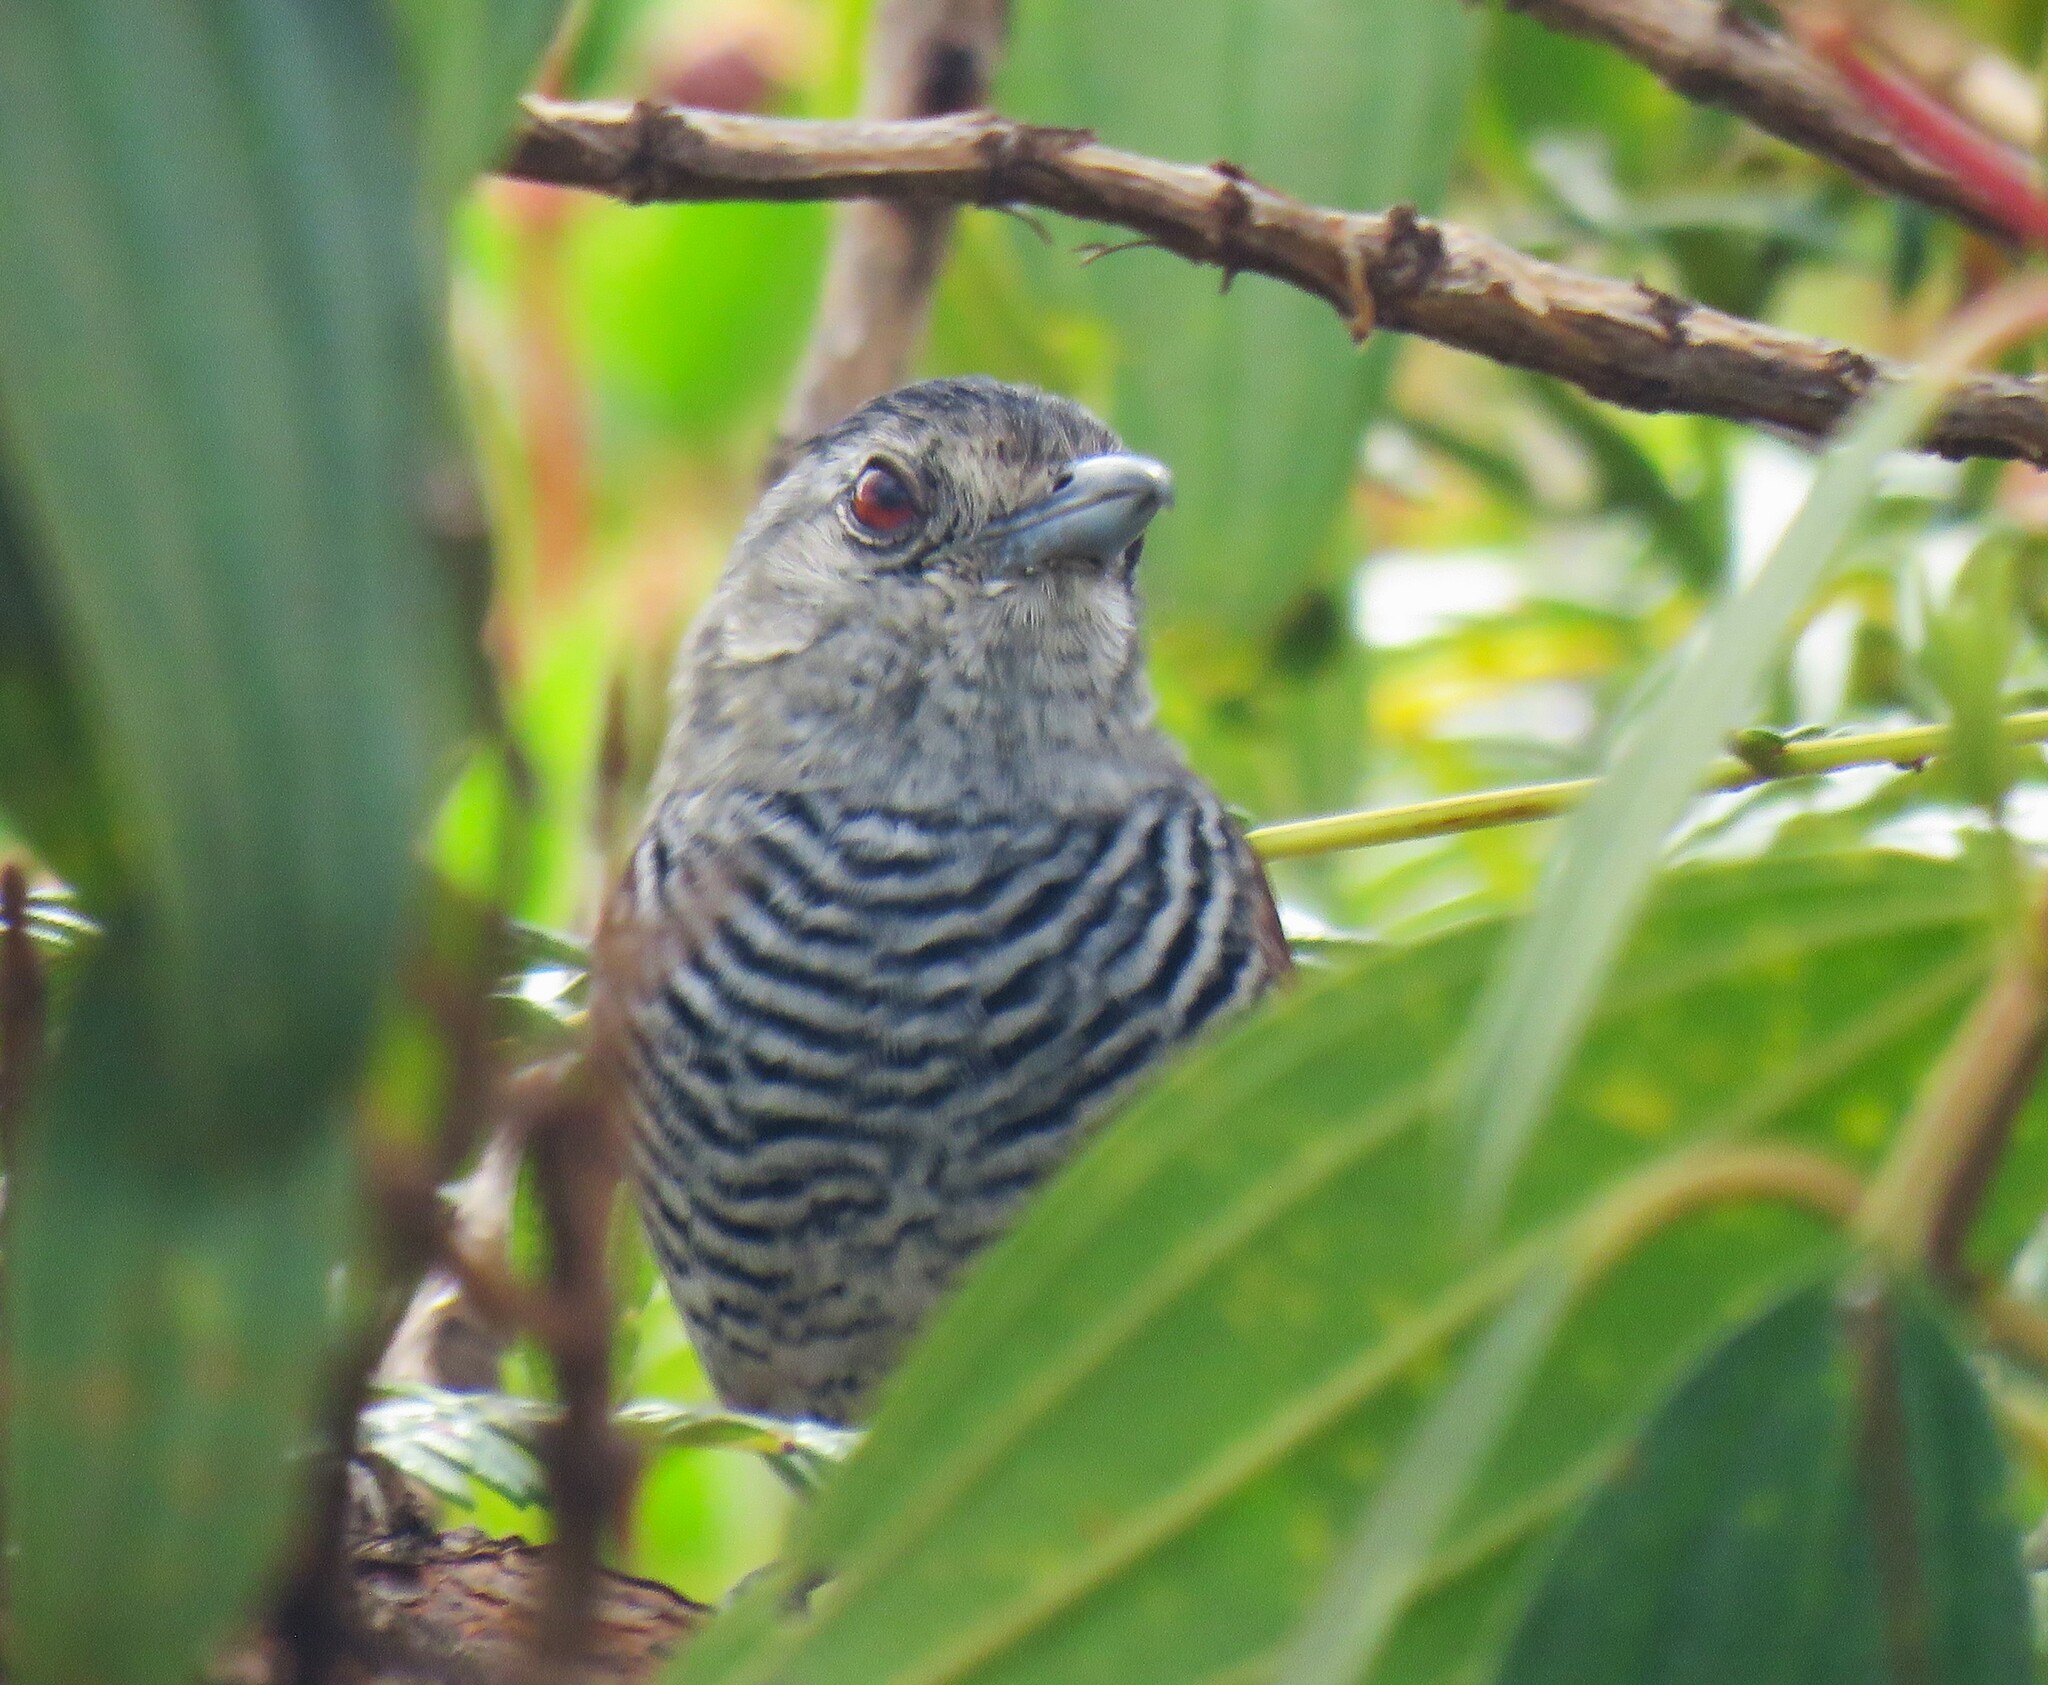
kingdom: Animalia
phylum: Chordata
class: Aves
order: Passeriformes
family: Thamnophilidae
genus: Thamnophilus
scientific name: Thamnophilus torquatus
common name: Rufous-winged antshrike
